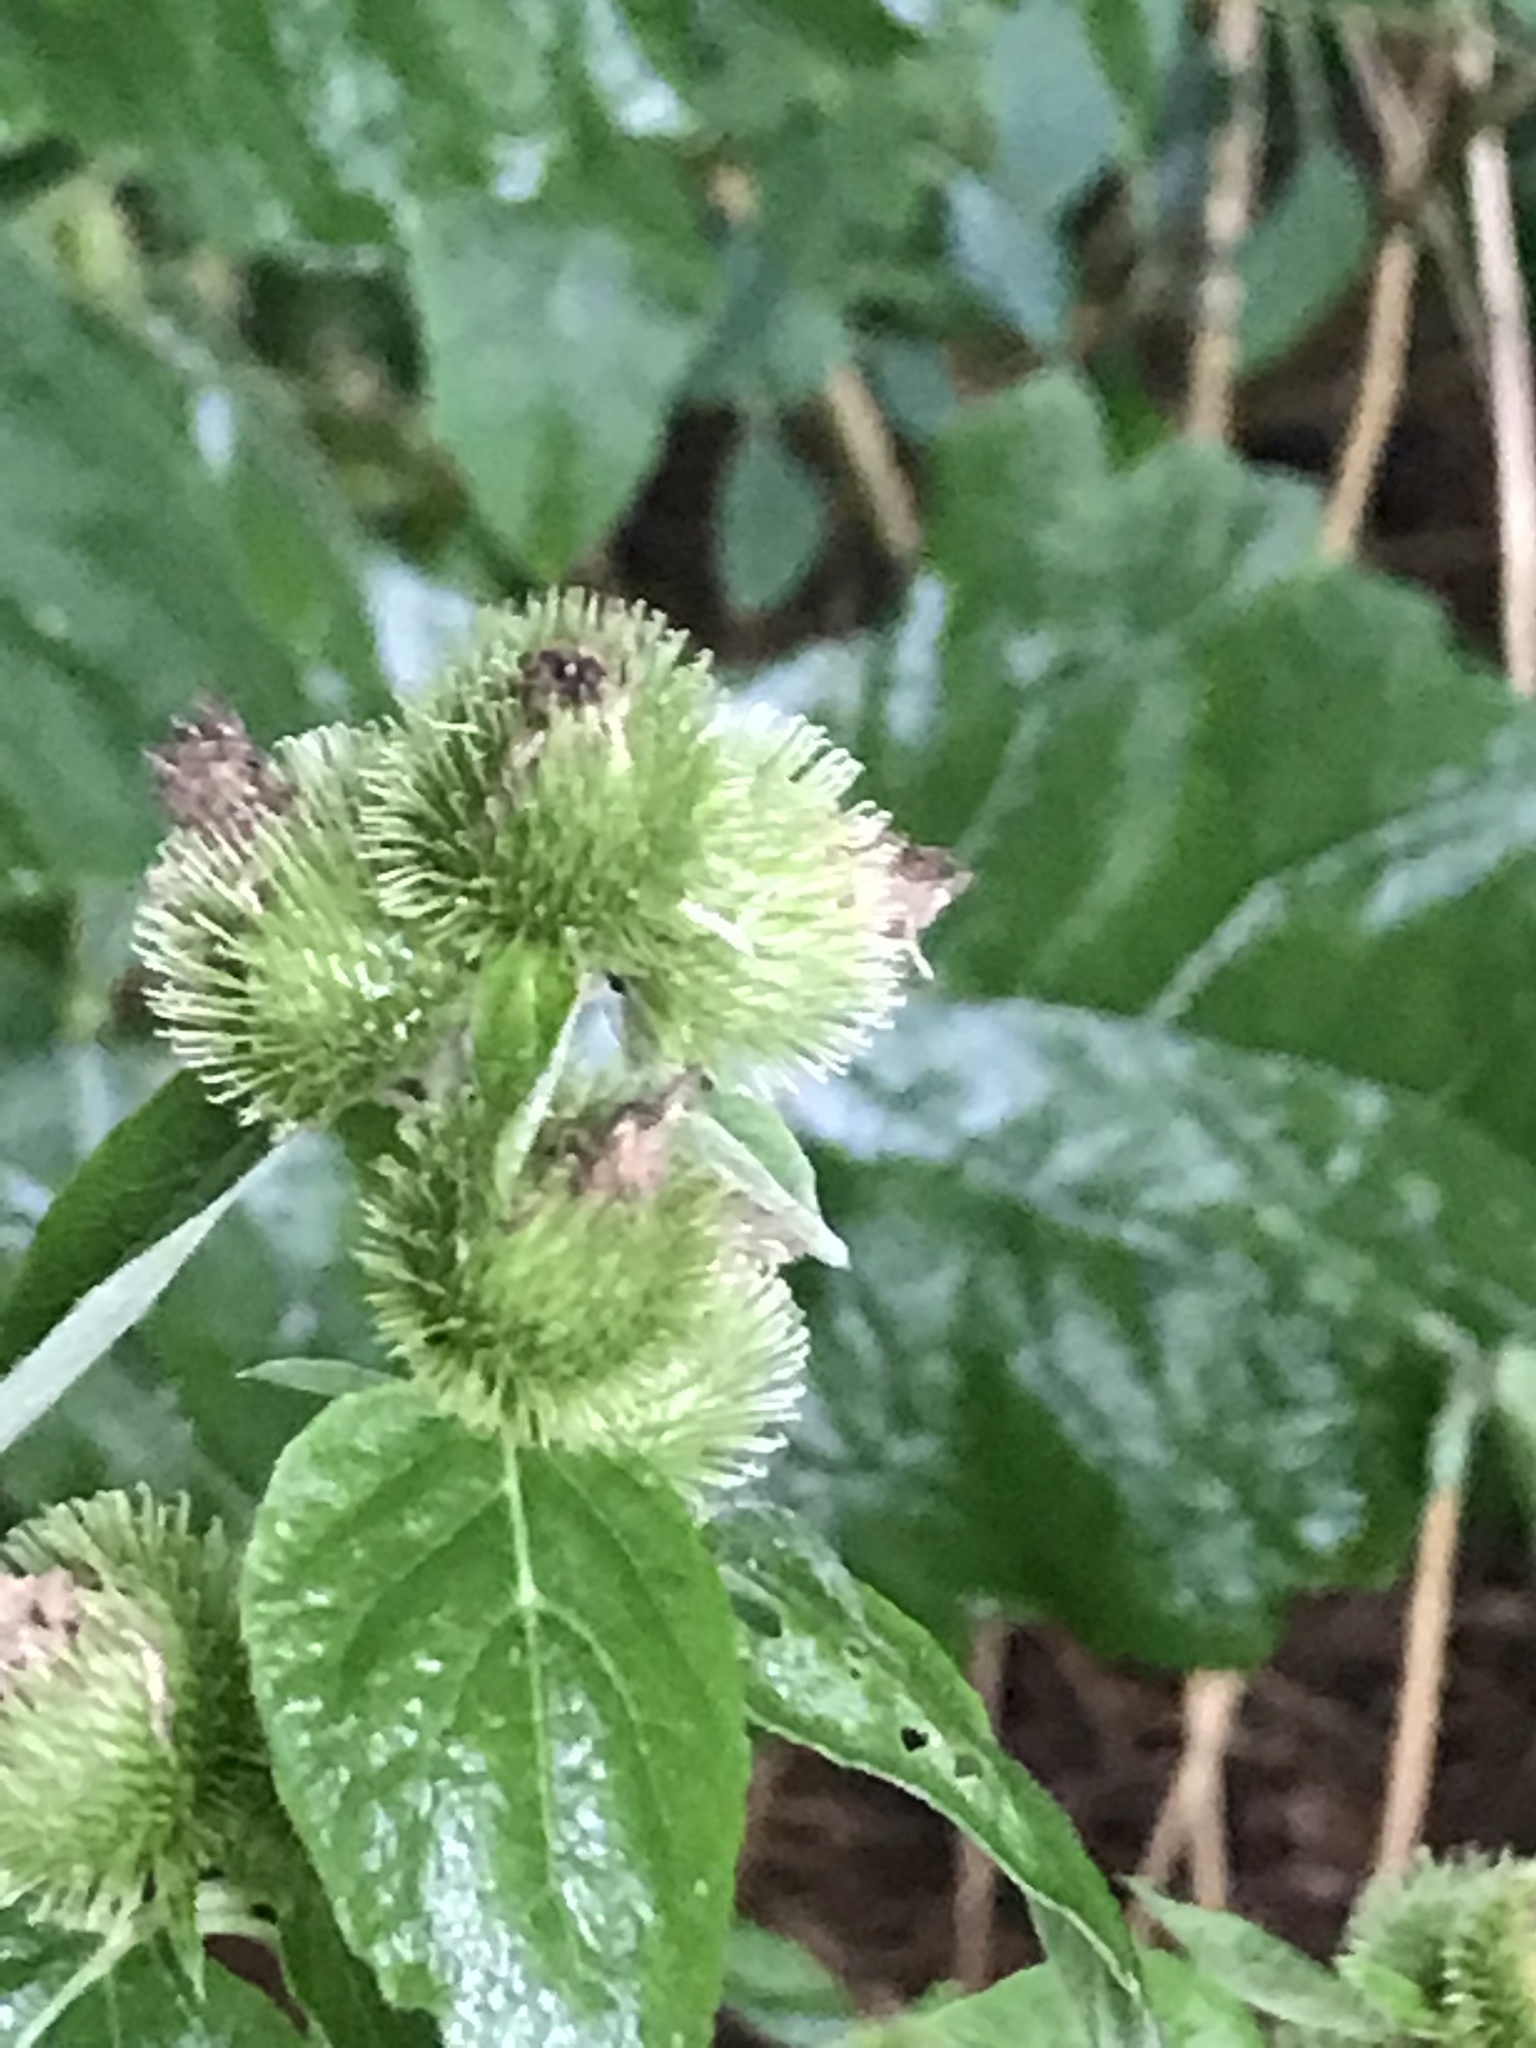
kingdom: Plantae
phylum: Tracheophyta
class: Magnoliopsida
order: Asterales
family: Asteraceae
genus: Arctium
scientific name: Arctium minus
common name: Lesser burdock
